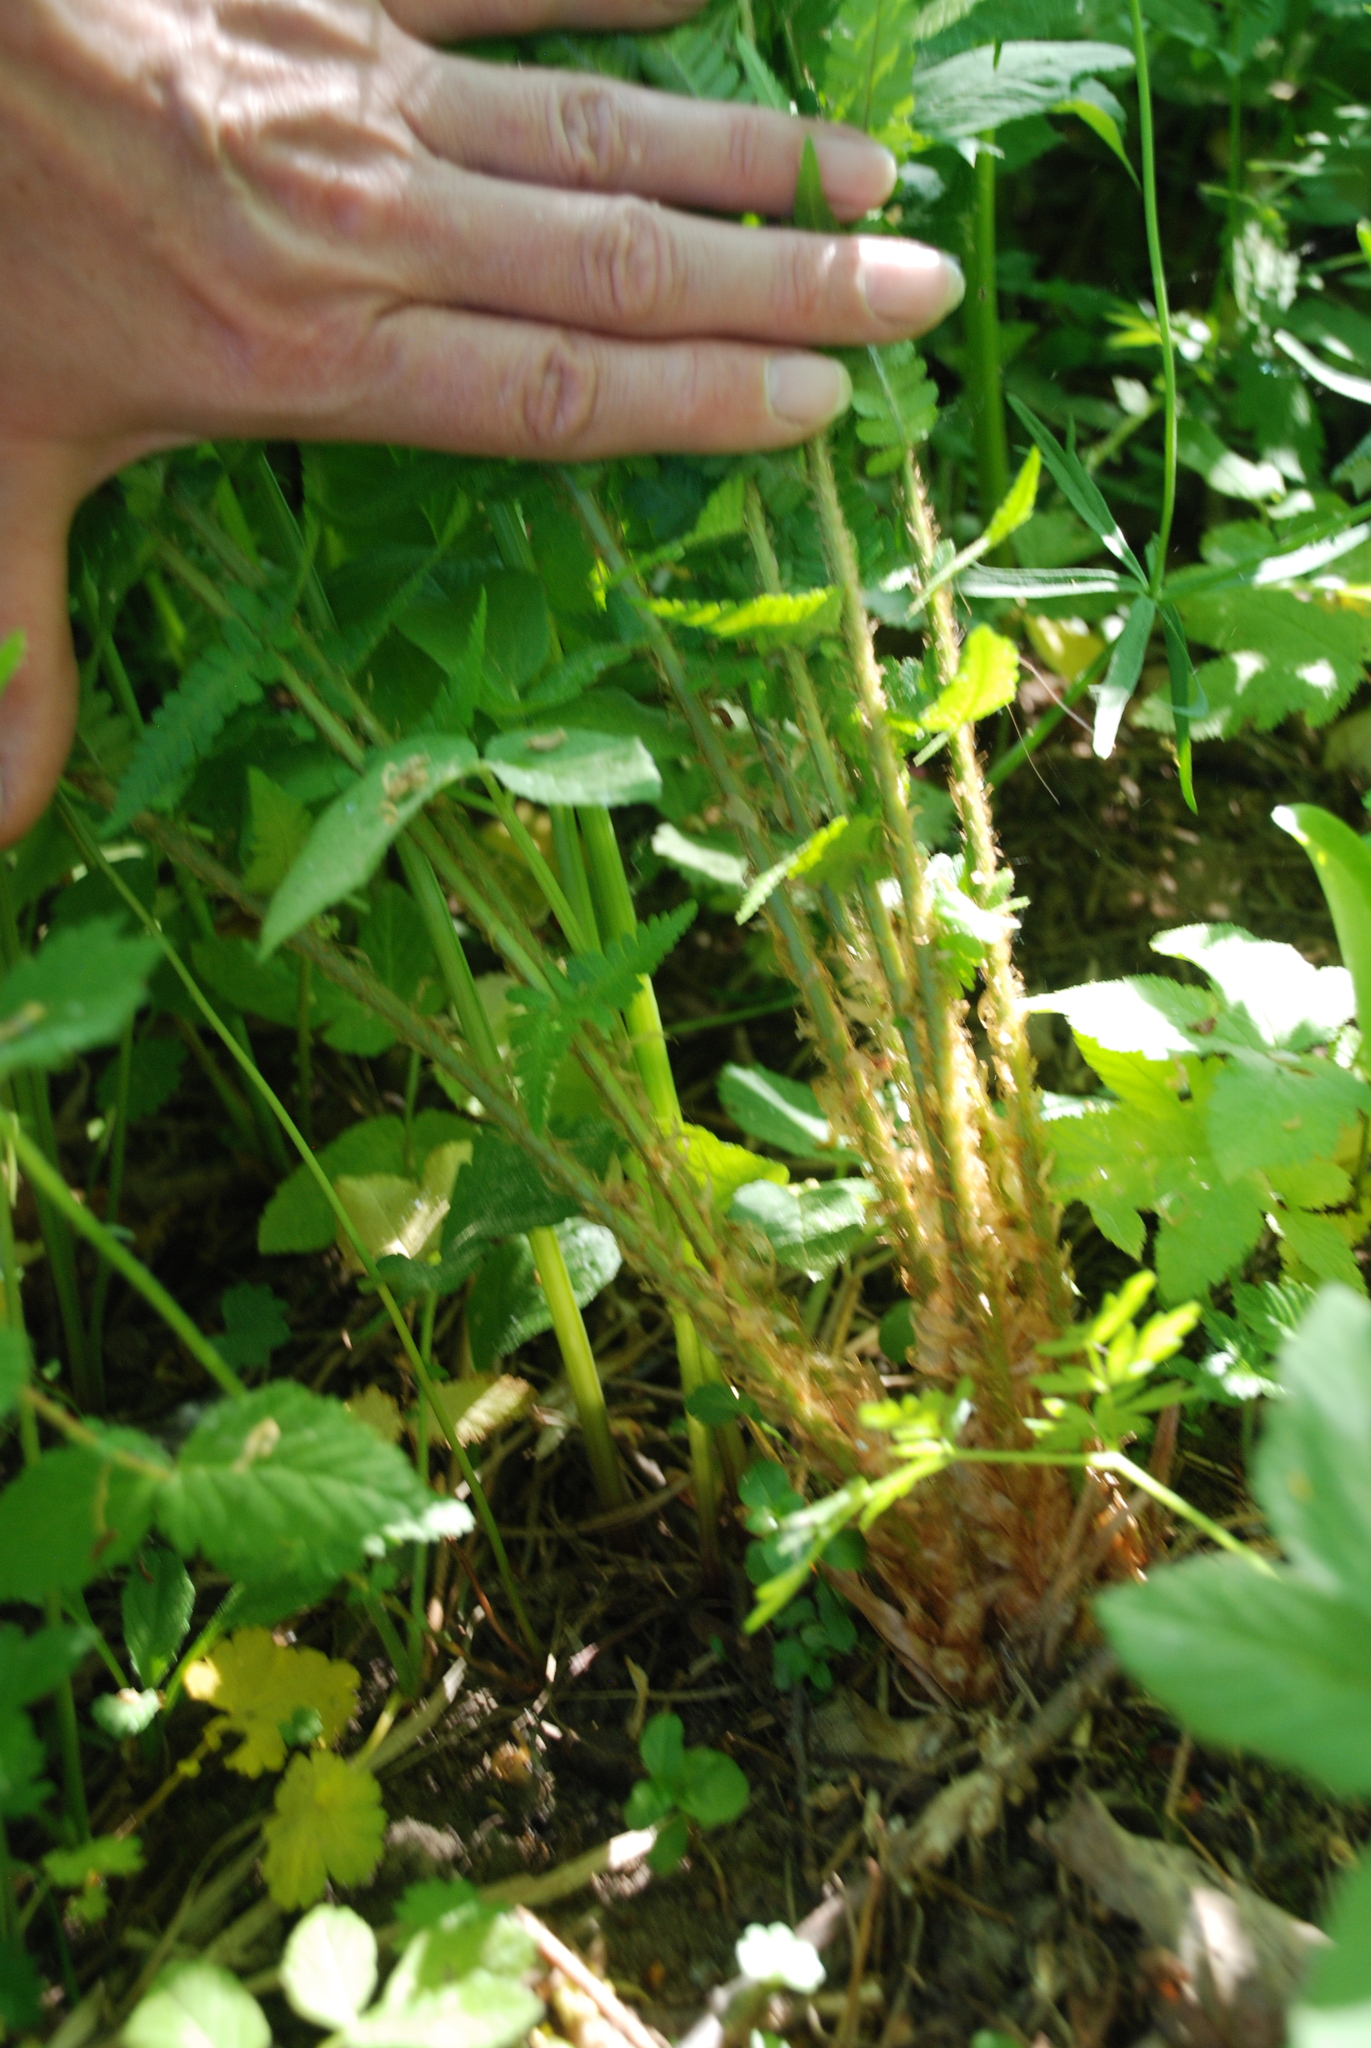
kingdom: Plantae
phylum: Tracheophyta
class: Polypodiopsida
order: Polypodiales
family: Dryopteridaceae
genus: Dryopteris
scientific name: Dryopteris filix-mas
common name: Male fern
